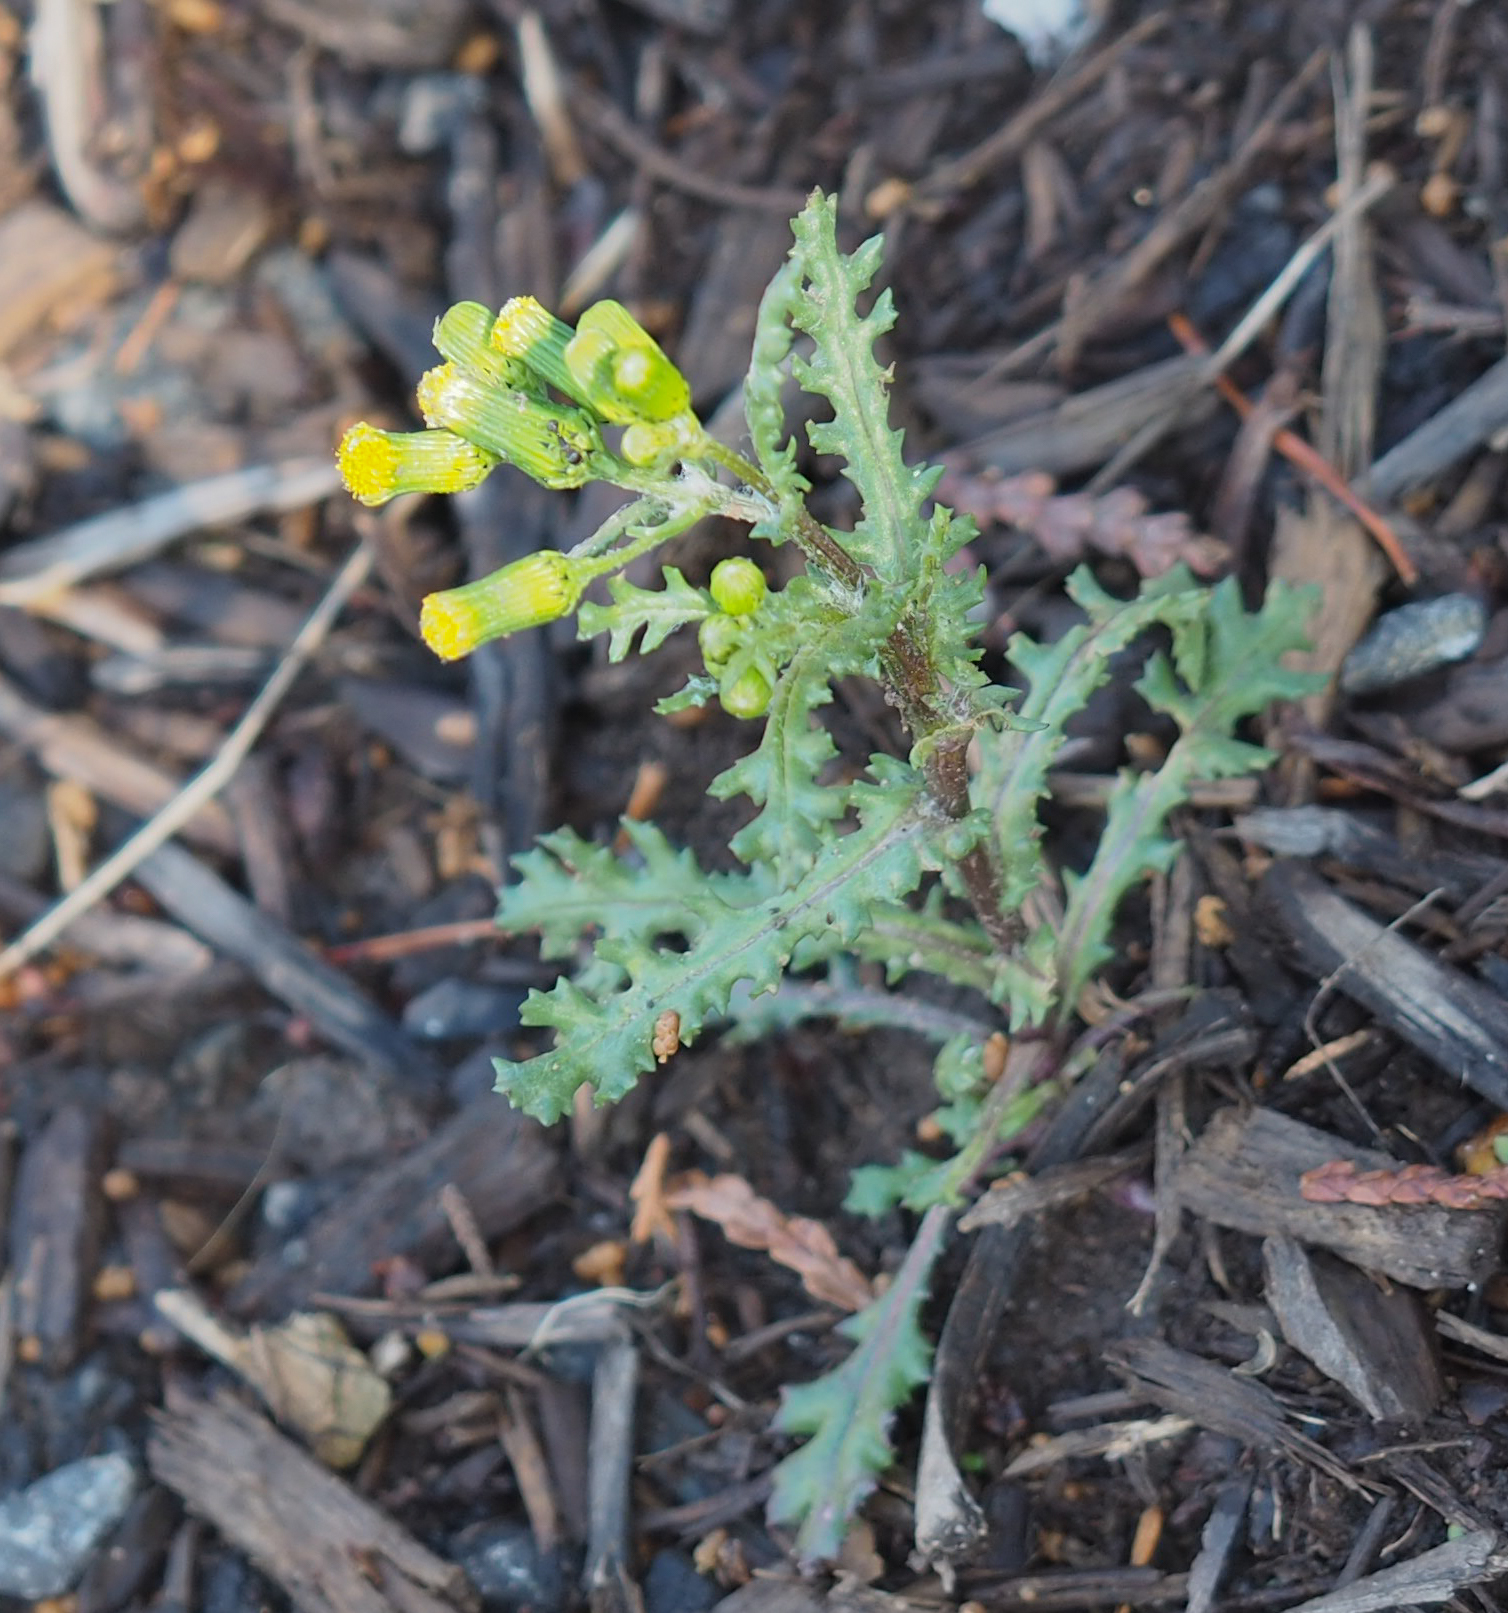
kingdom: Plantae
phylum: Tracheophyta
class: Magnoliopsida
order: Asterales
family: Asteraceae
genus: Senecio
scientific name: Senecio vulgaris
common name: Old-man-in-the-spring
